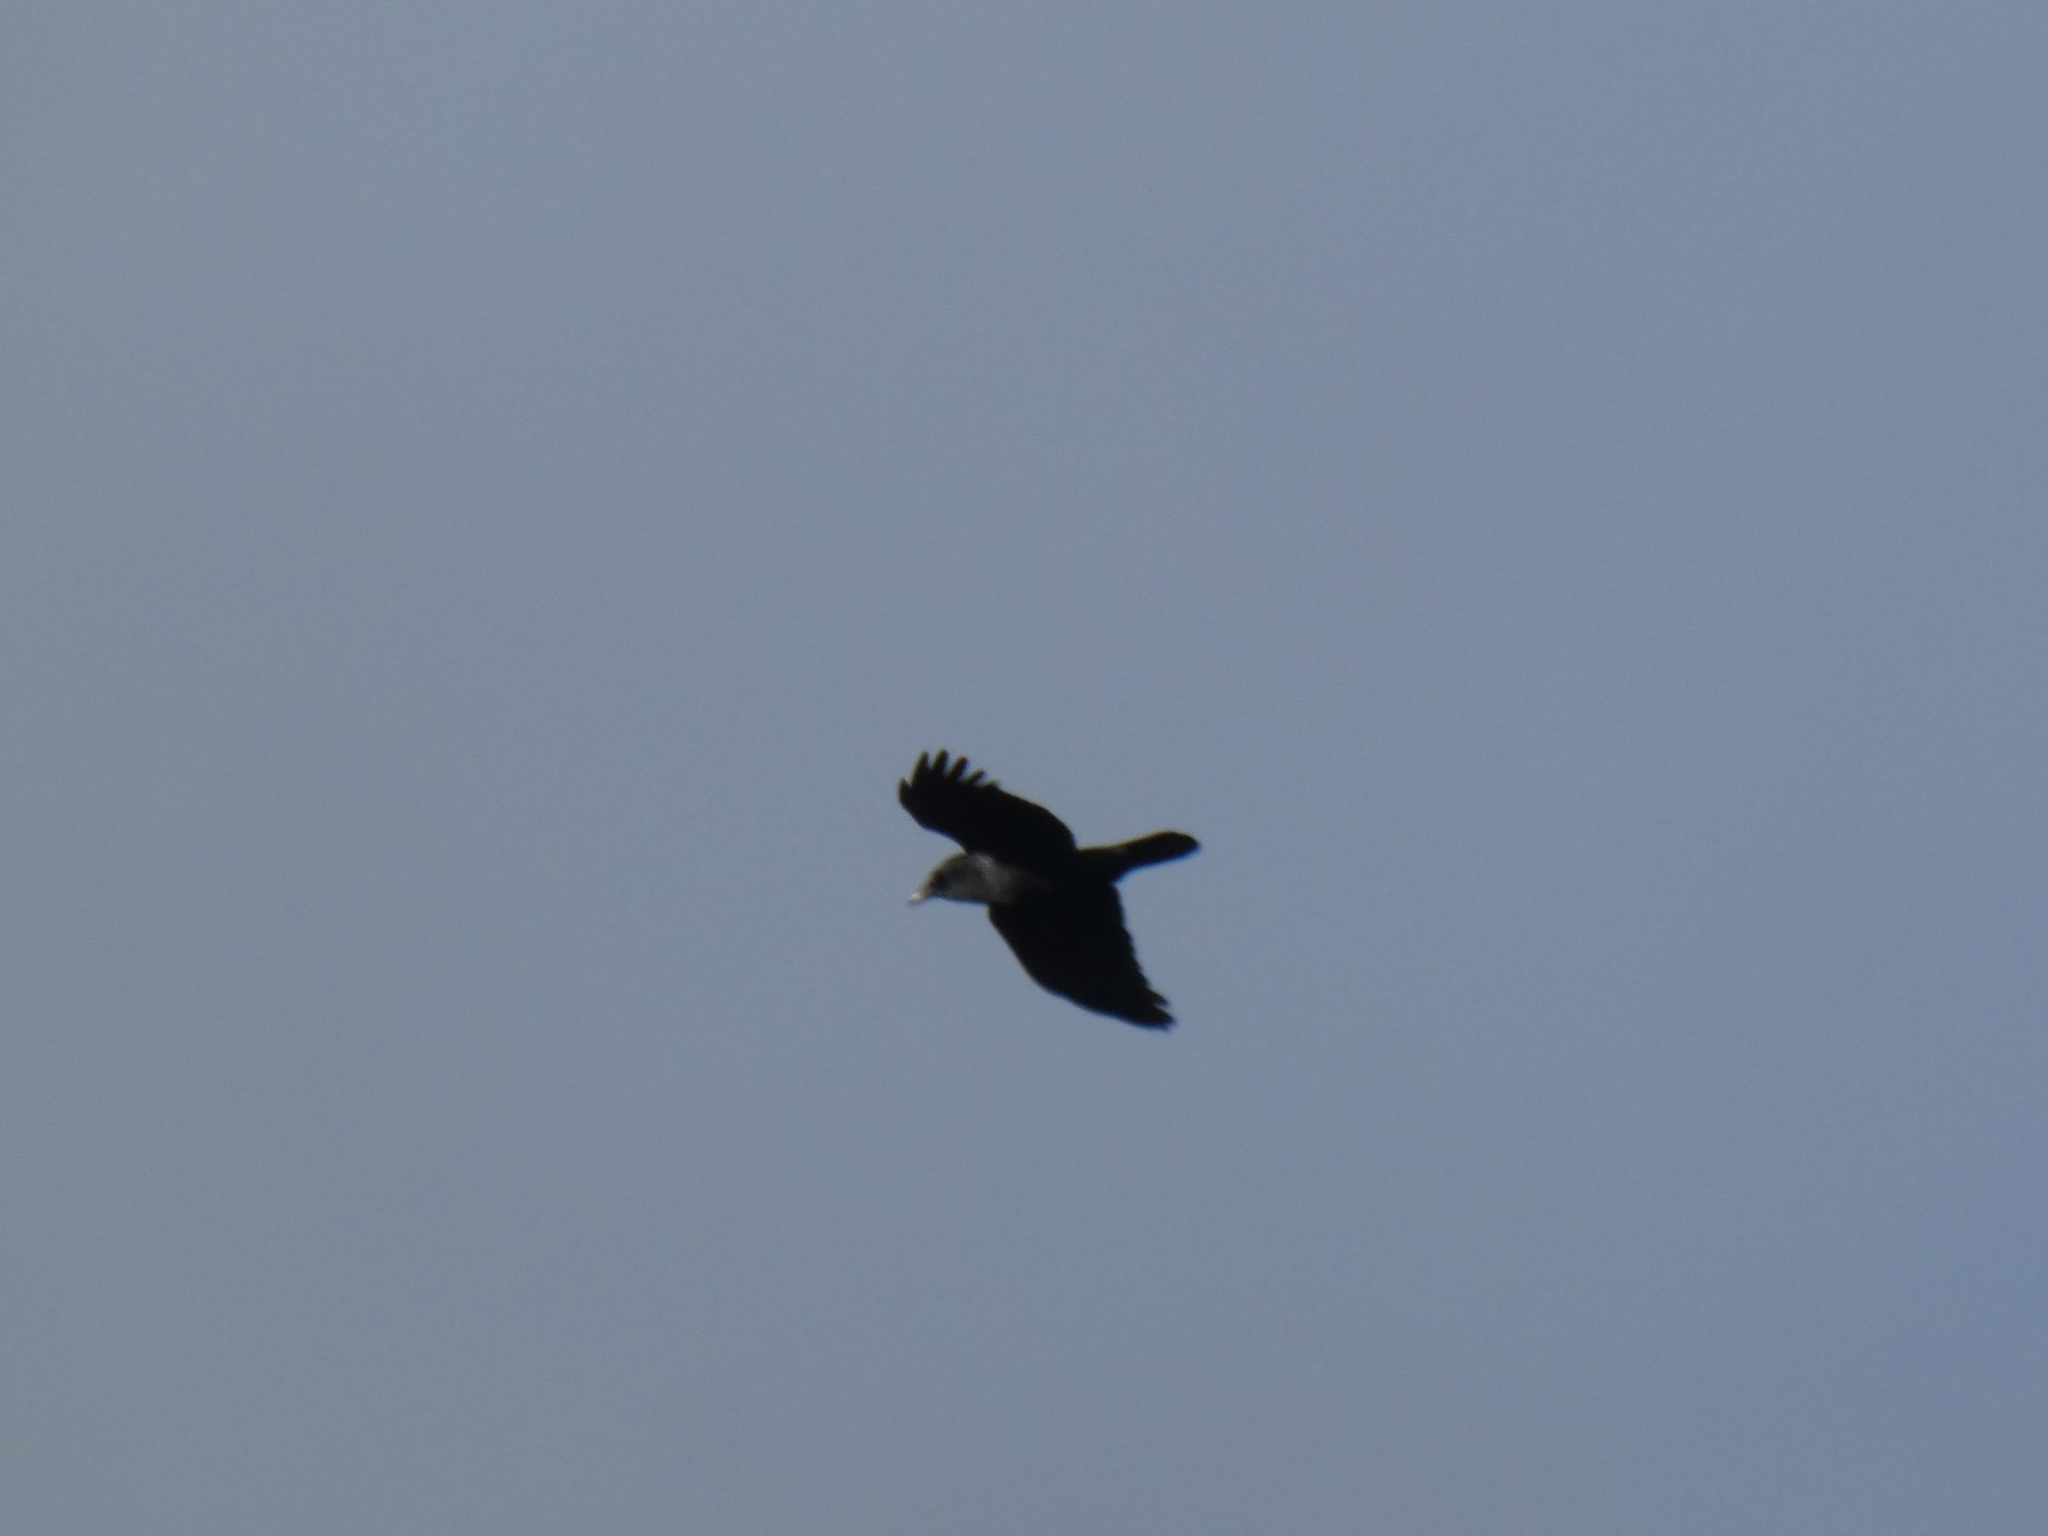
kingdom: Animalia
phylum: Chordata
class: Aves
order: Passeriformes
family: Corvidae
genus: Corvus
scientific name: Corvus brachyrhynchos
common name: American crow
